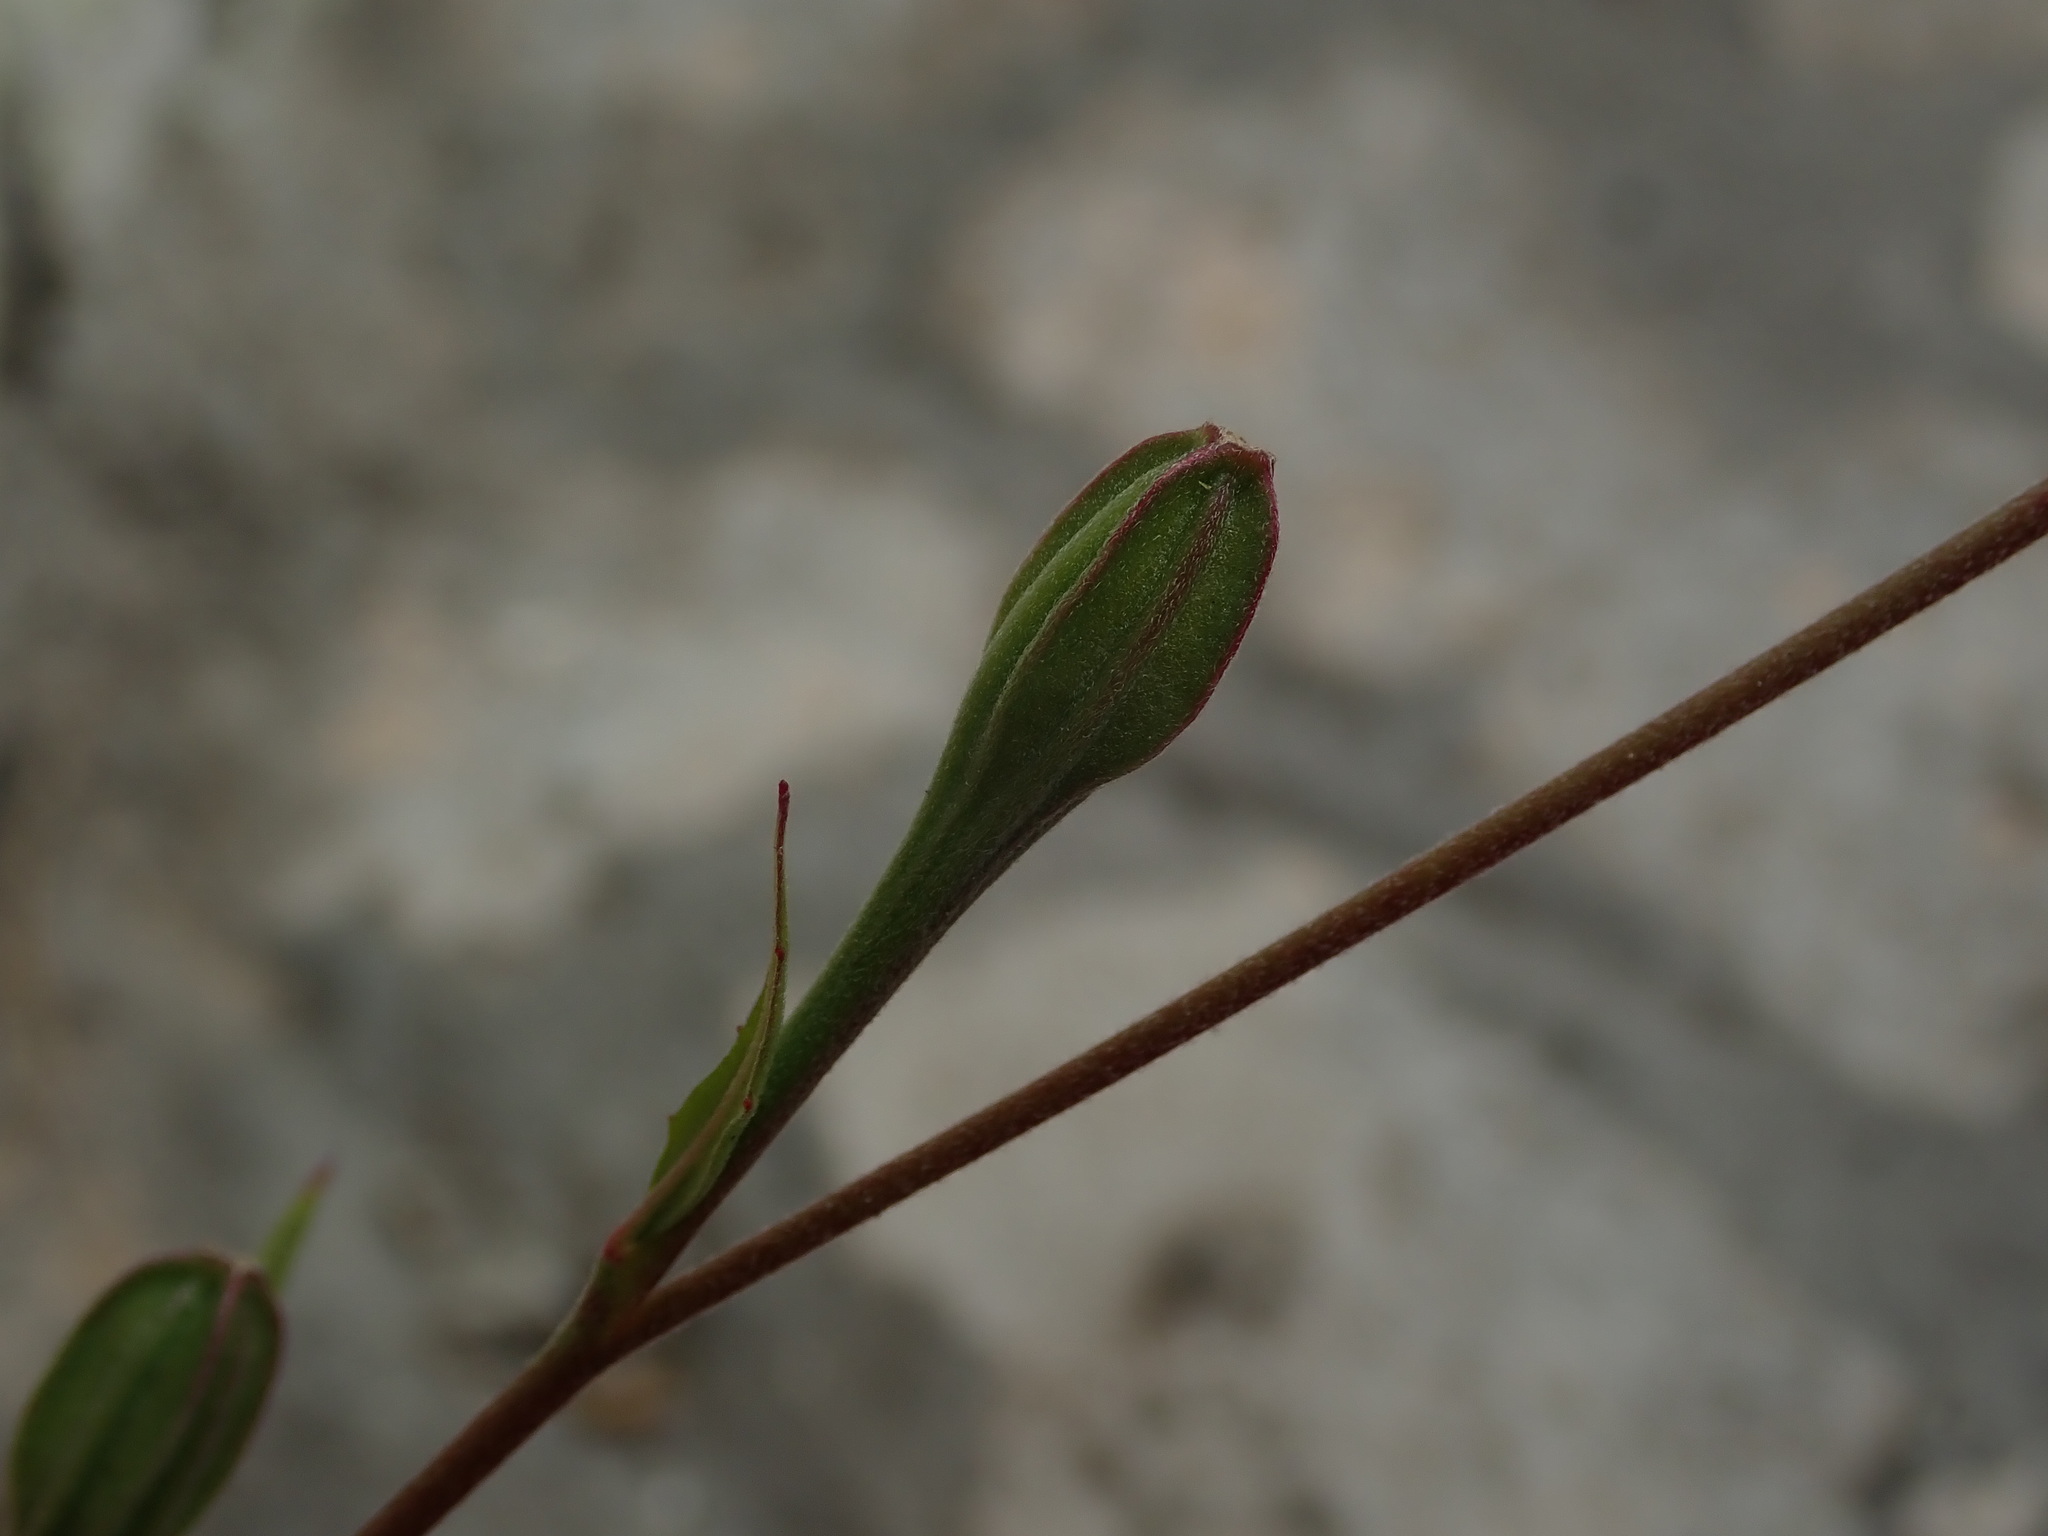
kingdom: Plantae
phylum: Tracheophyta
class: Magnoliopsida
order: Myrtales
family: Onagraceae
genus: Oenothera
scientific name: Oenothera rosea
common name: Rosy evening-primrose
